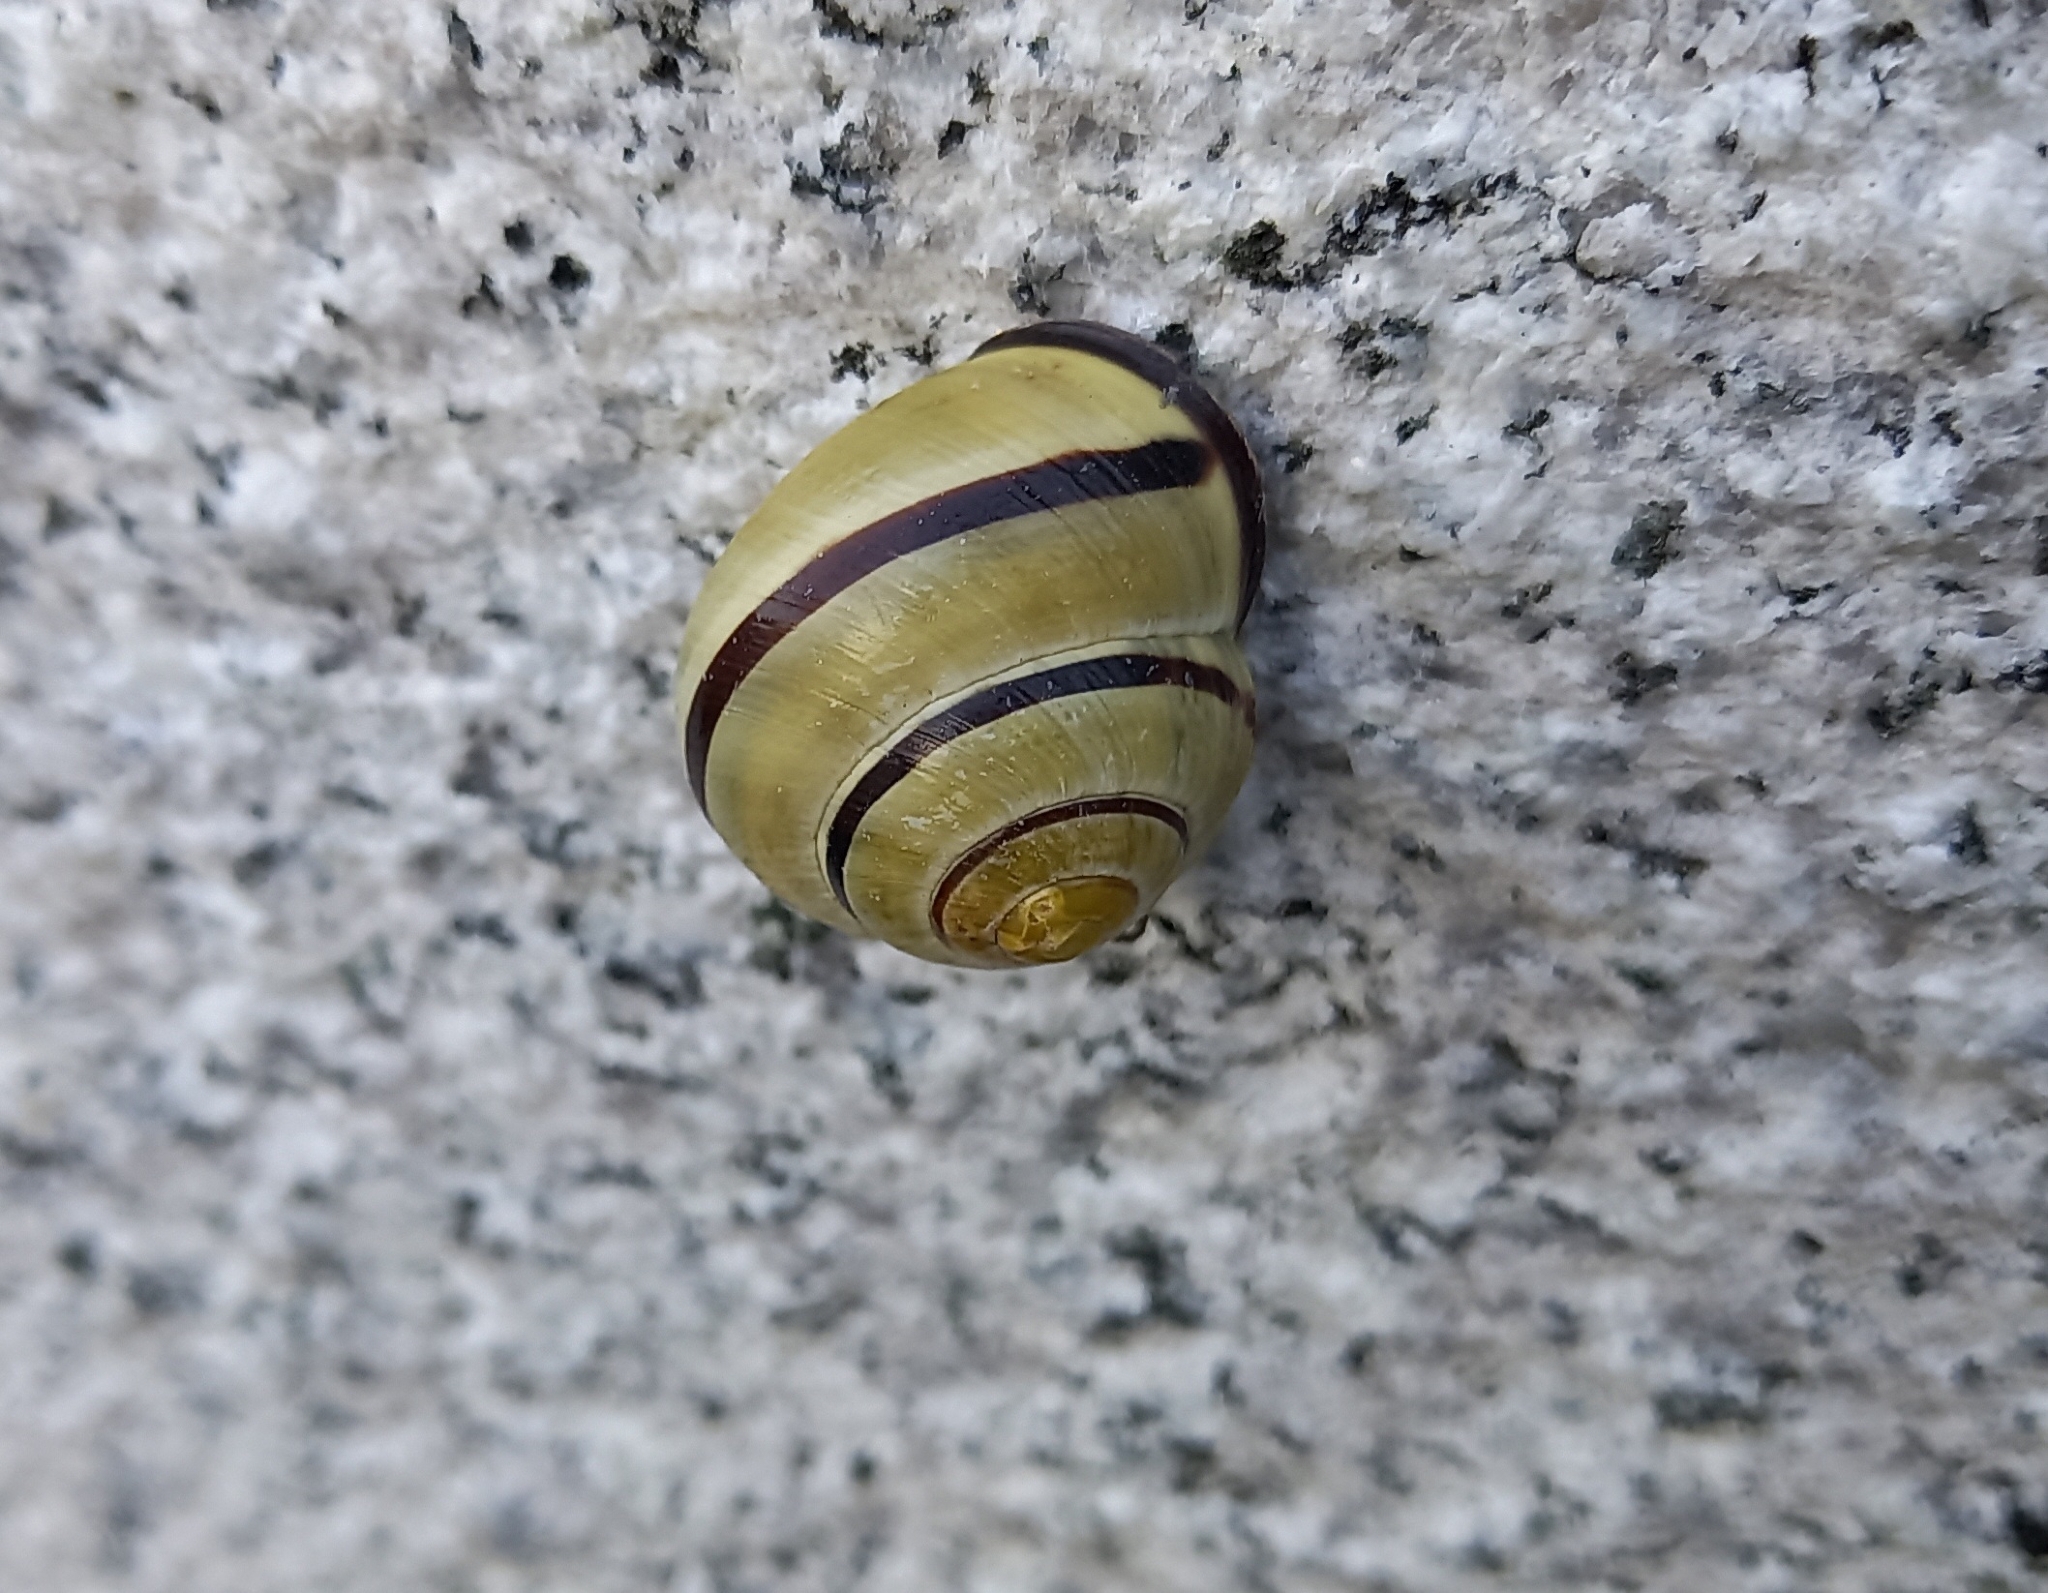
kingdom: Animalia
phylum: Mollusca
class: Gastropoda
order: Stylommatophora
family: Helicidae
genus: Cepaea
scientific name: Cepaea nemoralis
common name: Grovesnail
